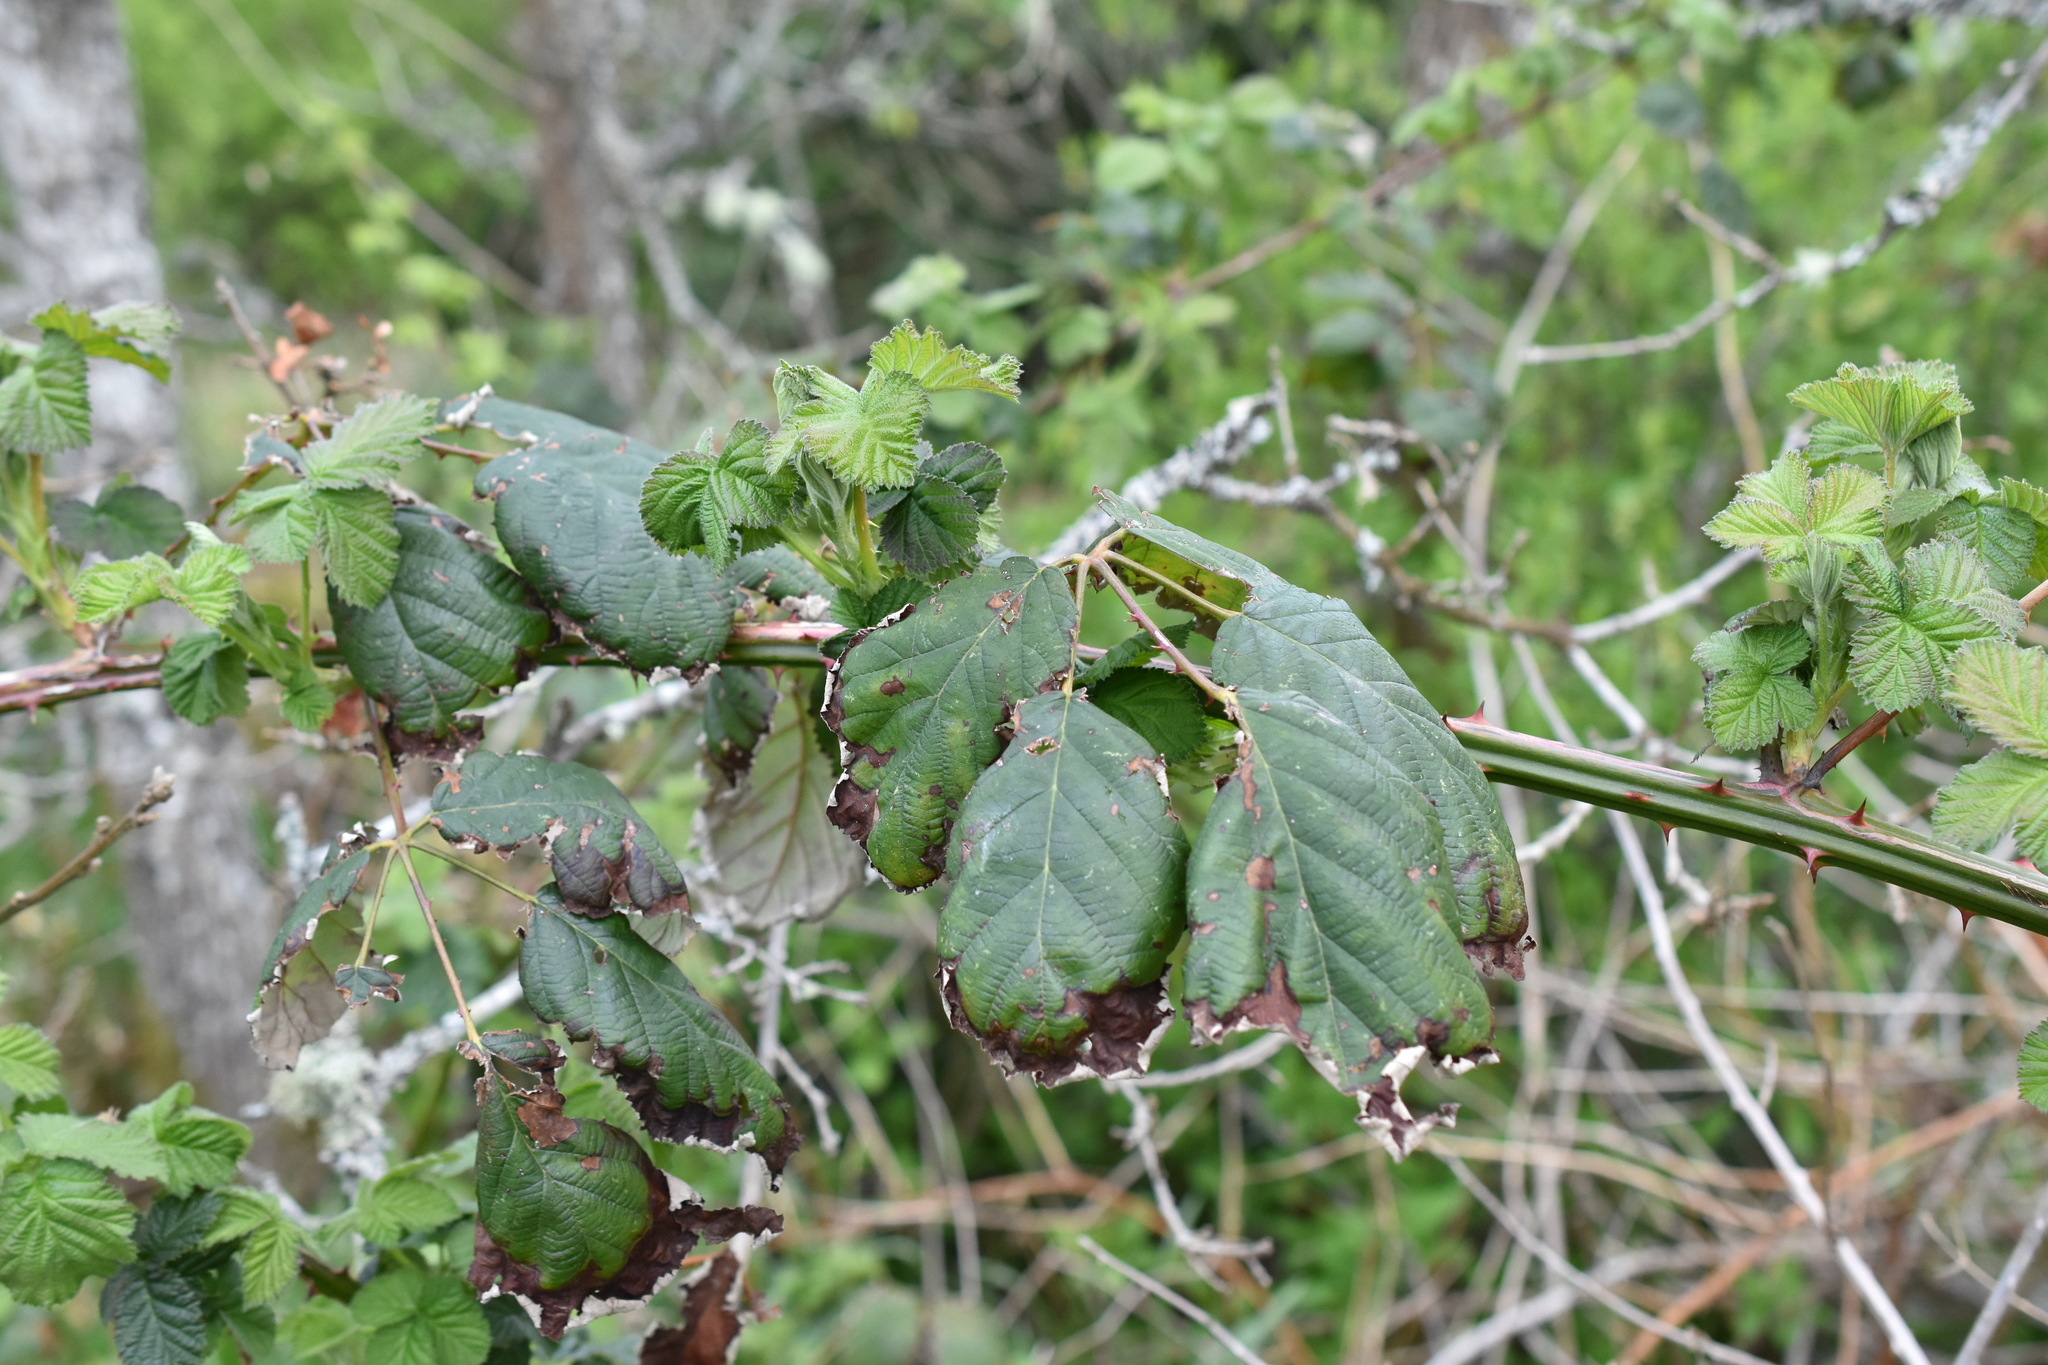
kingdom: Plantae
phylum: Tracheophyta
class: Magnoliopsida
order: Rosales
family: Rosaceae
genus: Rubus
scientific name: Rubus bifrons
